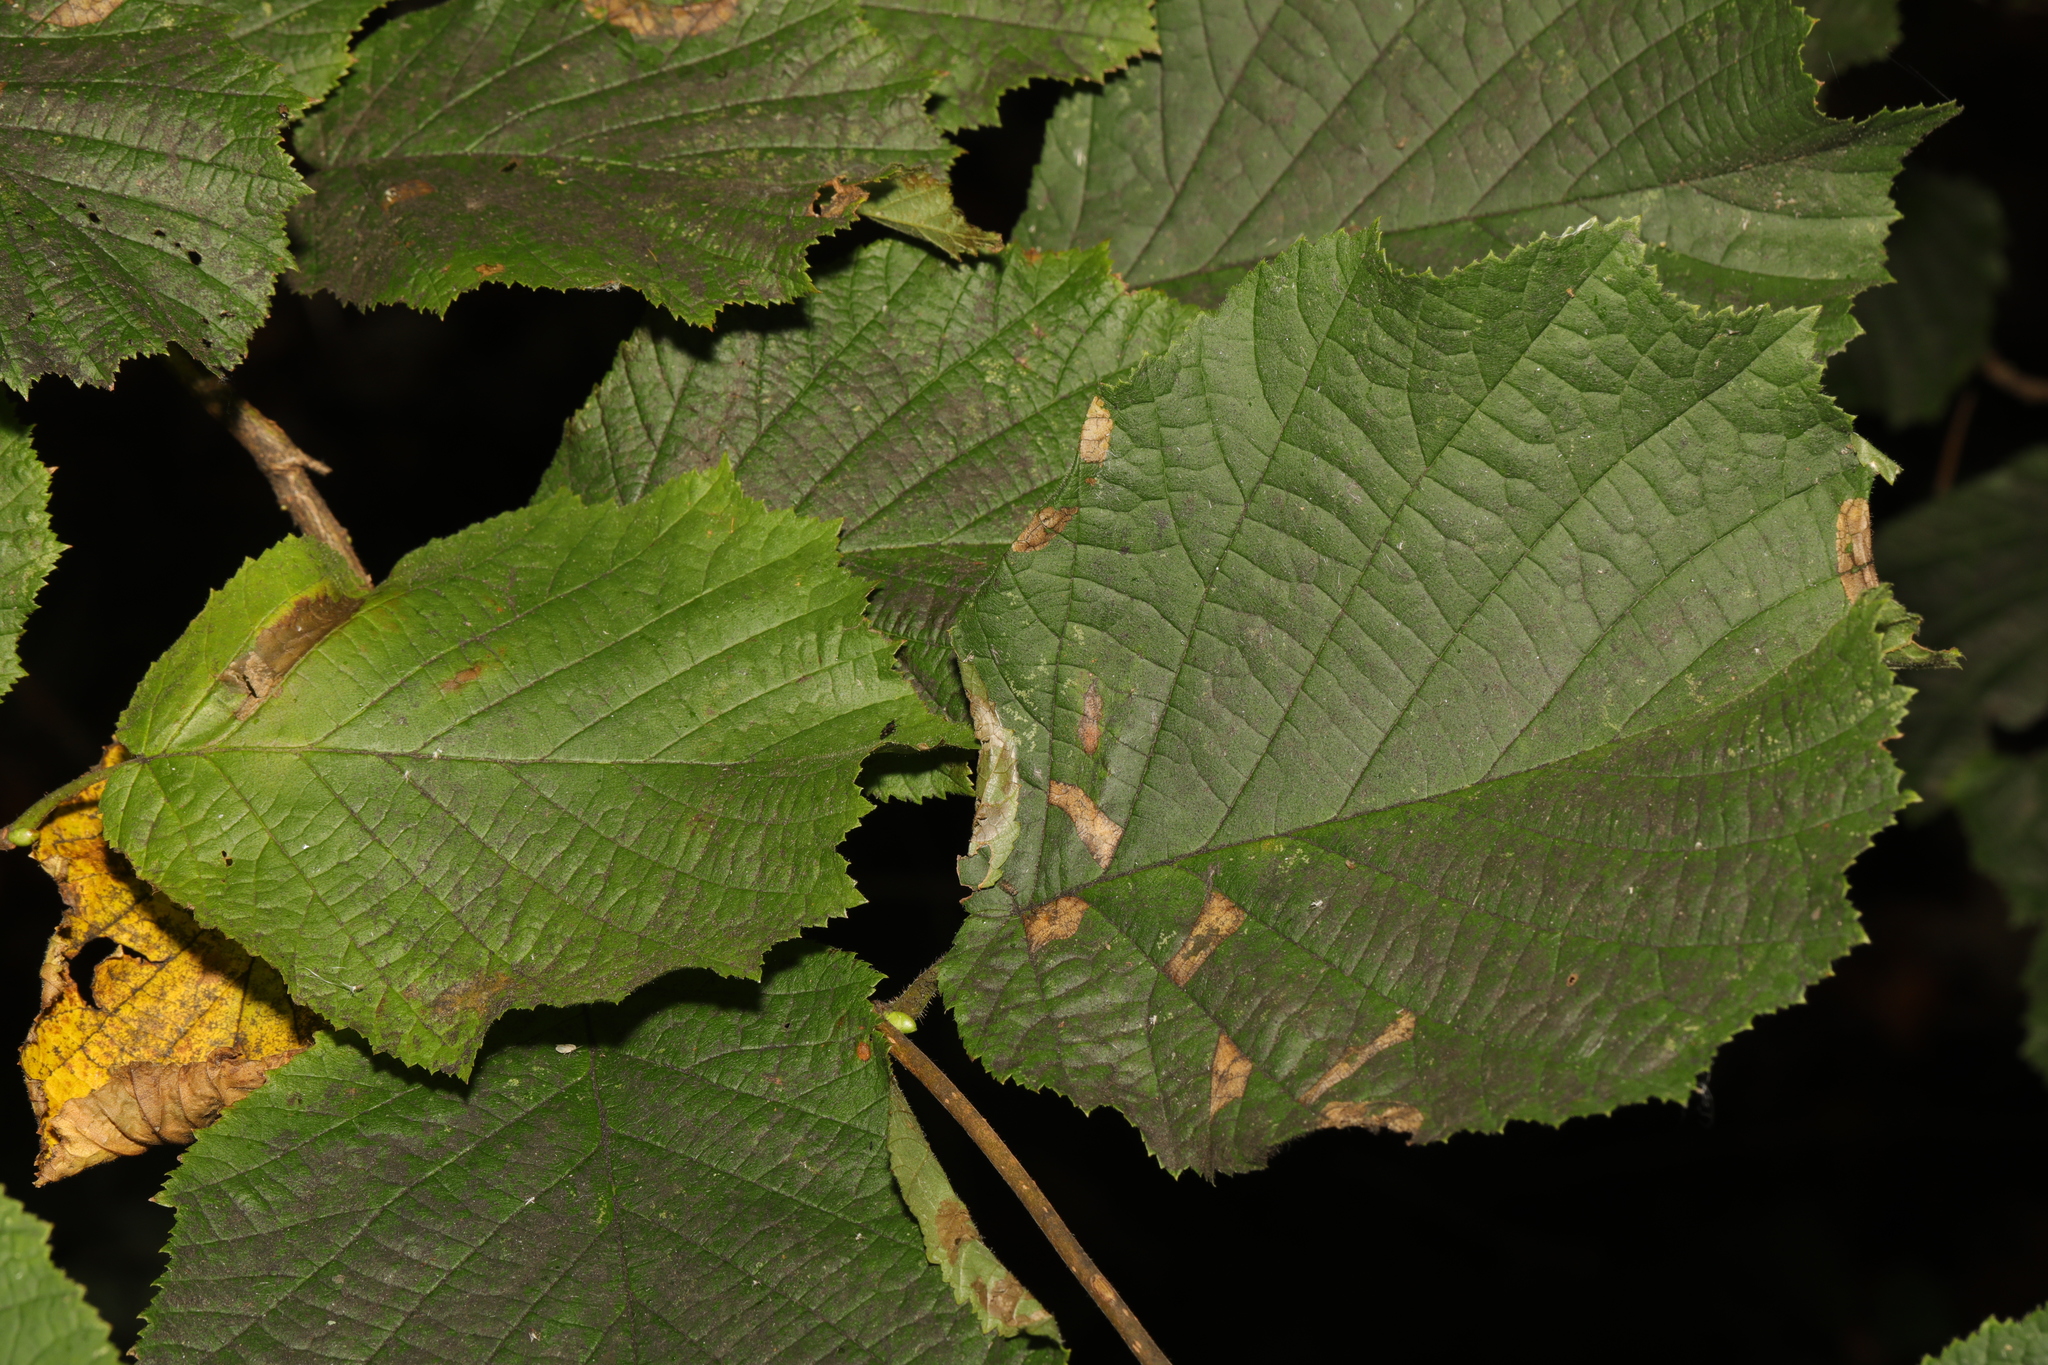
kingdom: Plantae
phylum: Tracheophyta
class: Magnoliopsida
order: Fagales
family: Betulaceae
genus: Corylus
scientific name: Corylus avellana
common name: European hazel
